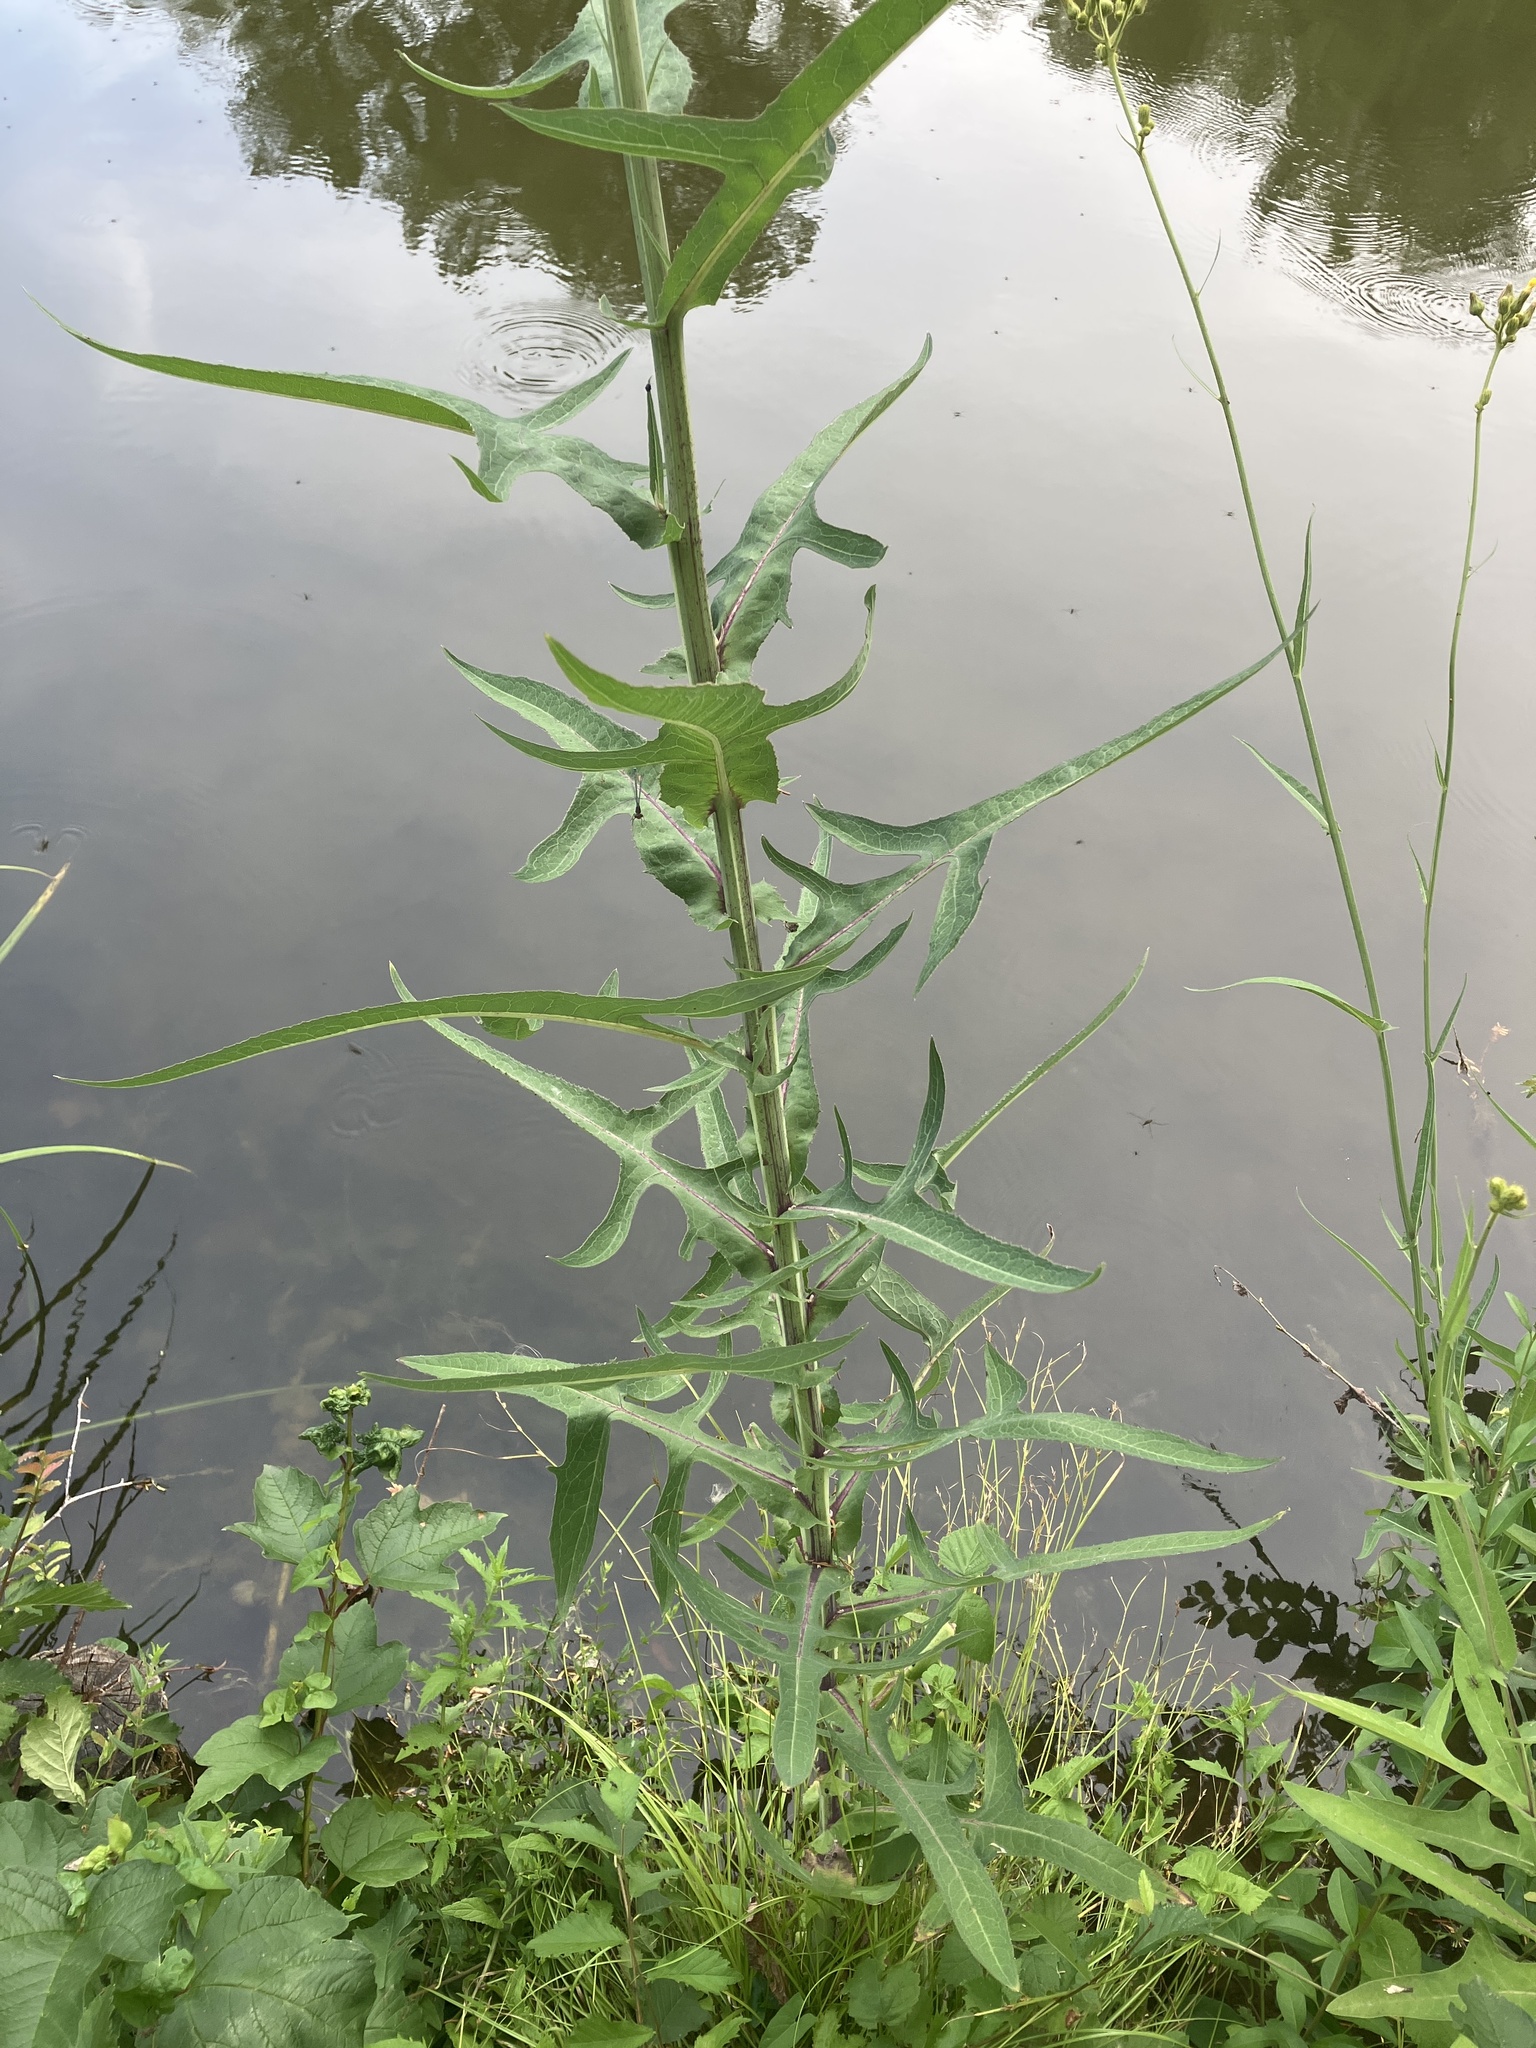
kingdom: Plantae
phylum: Tracheophyta
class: Magnoliopsida
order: Asterales
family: Asteraceae
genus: Sonchus
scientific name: Sonchus palustris
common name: Marsh sow-thistle
